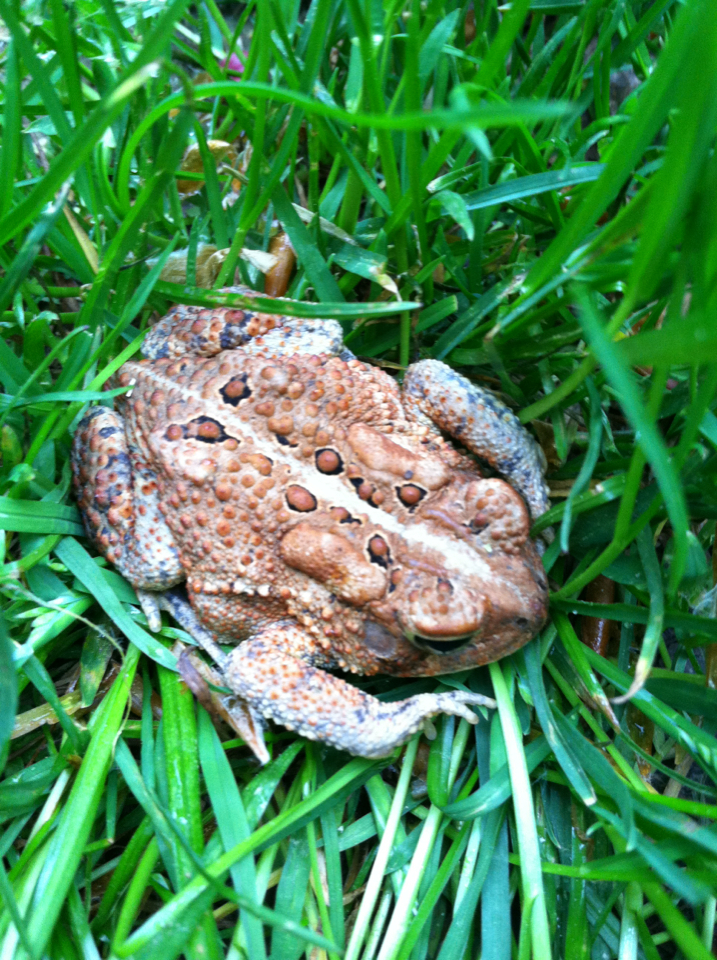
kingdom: Animalia
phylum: Chordata
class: Amphibia
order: Anura
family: Bufonidae
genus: Anaxyrus
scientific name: Anaxyrus americanus
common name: American toad
